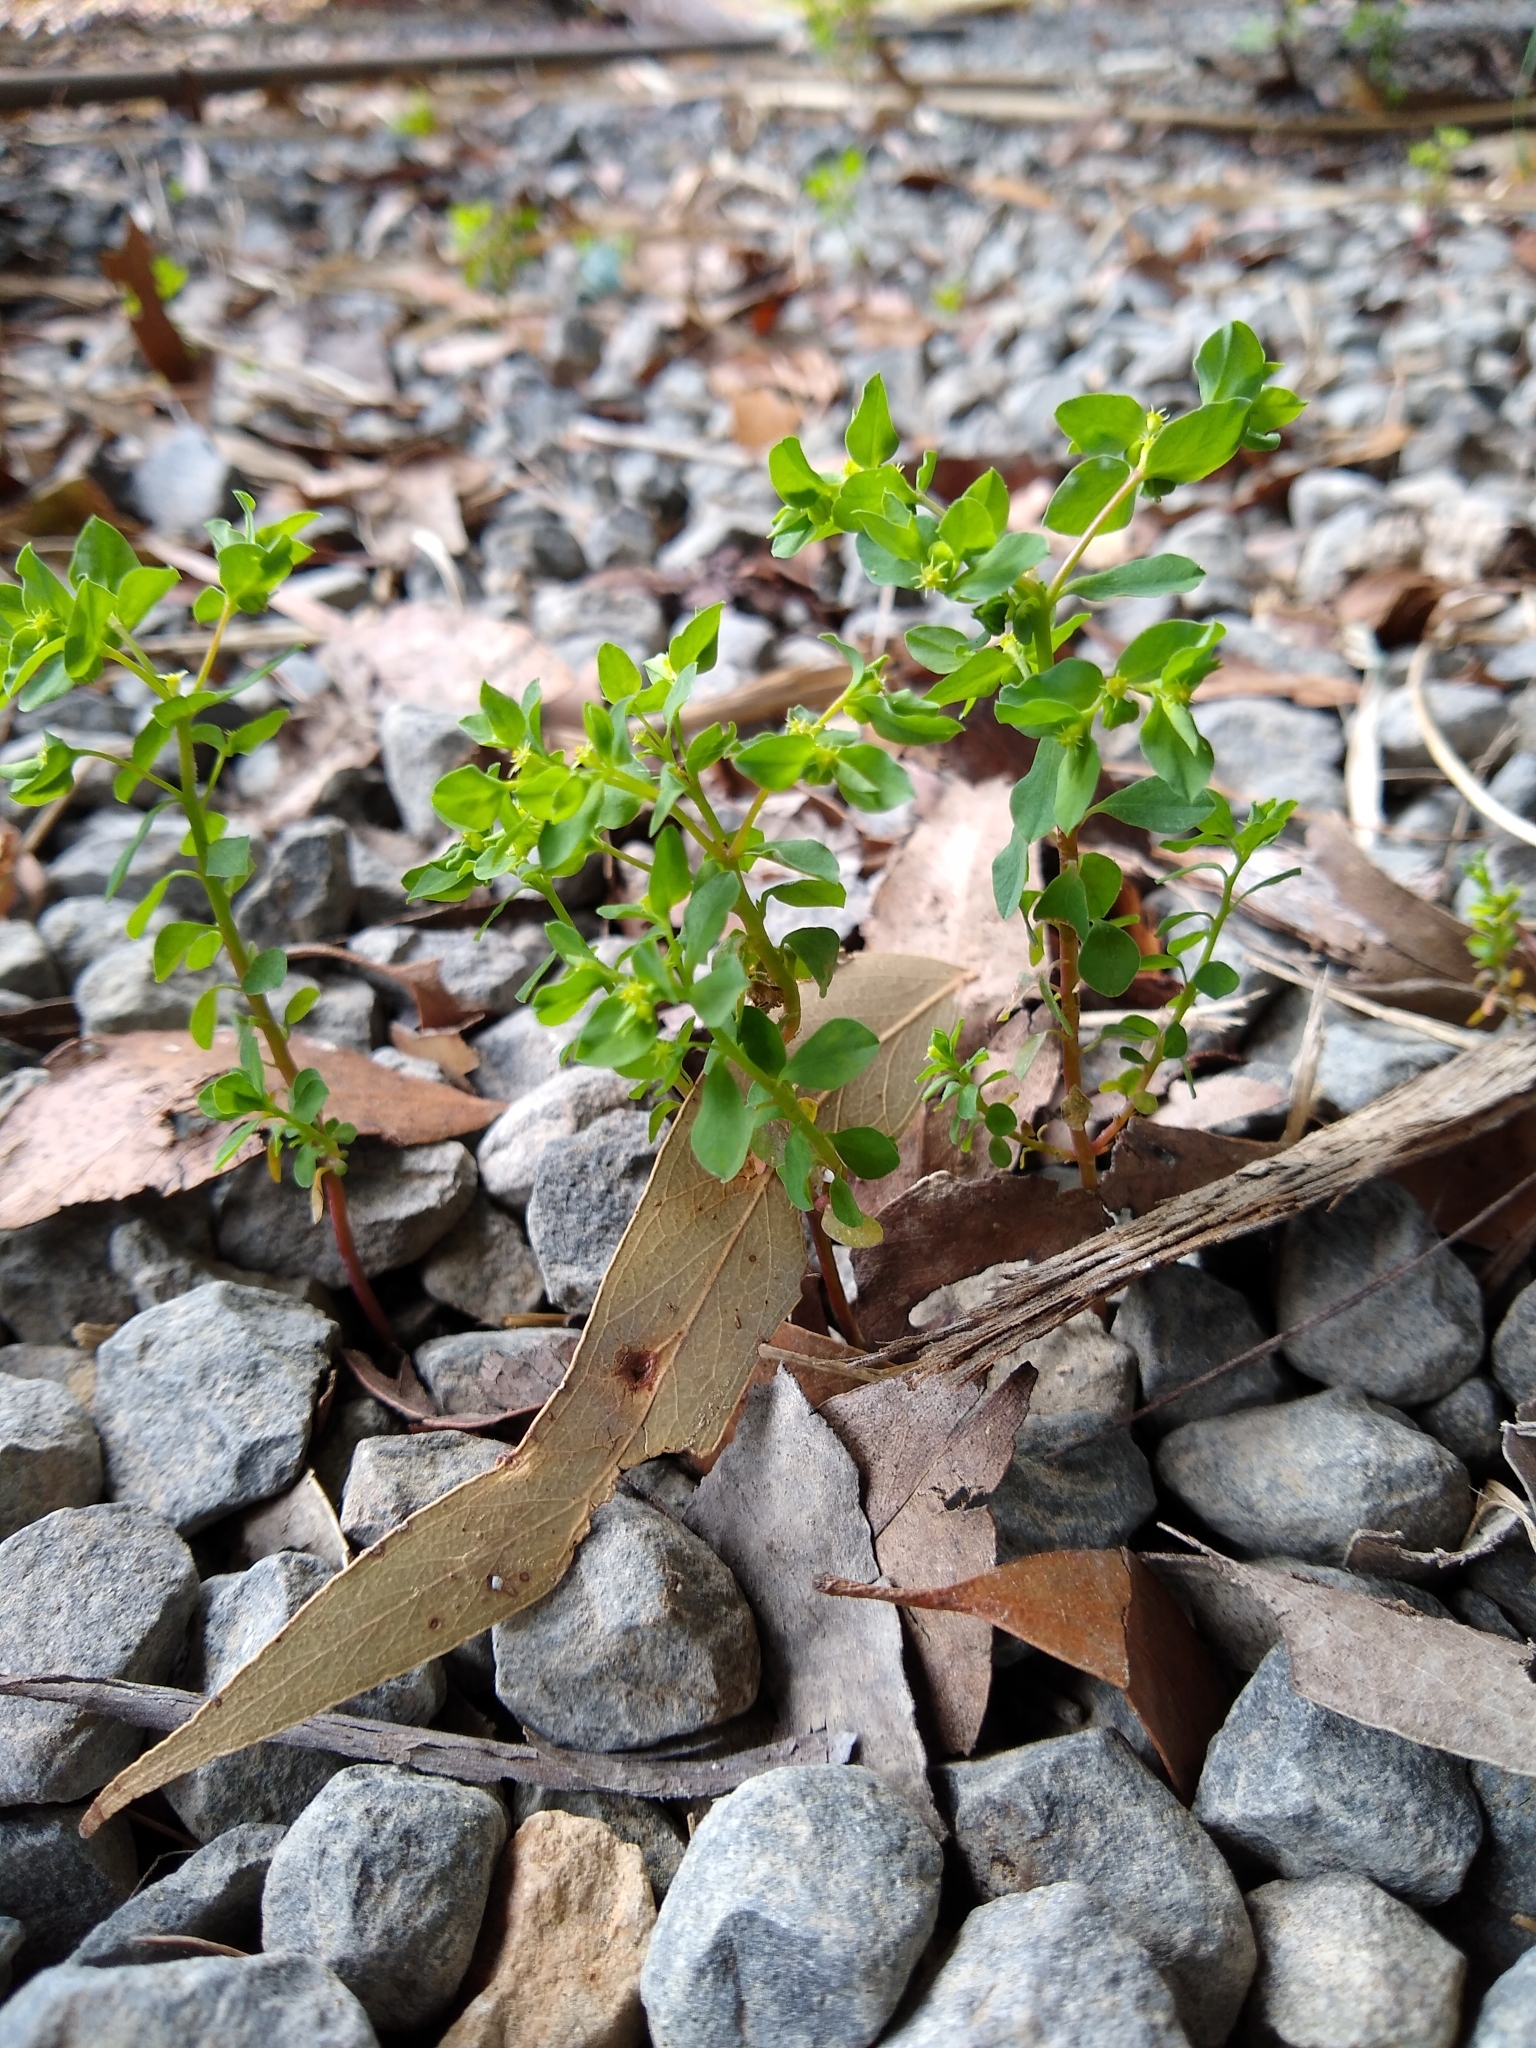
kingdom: Plantae
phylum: Tracheophyta
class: Magnoliopsida
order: Malpighiales
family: Euphorbiaceae
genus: Euphorbia
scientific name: Euphorbia peplus
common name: Petty spurge
